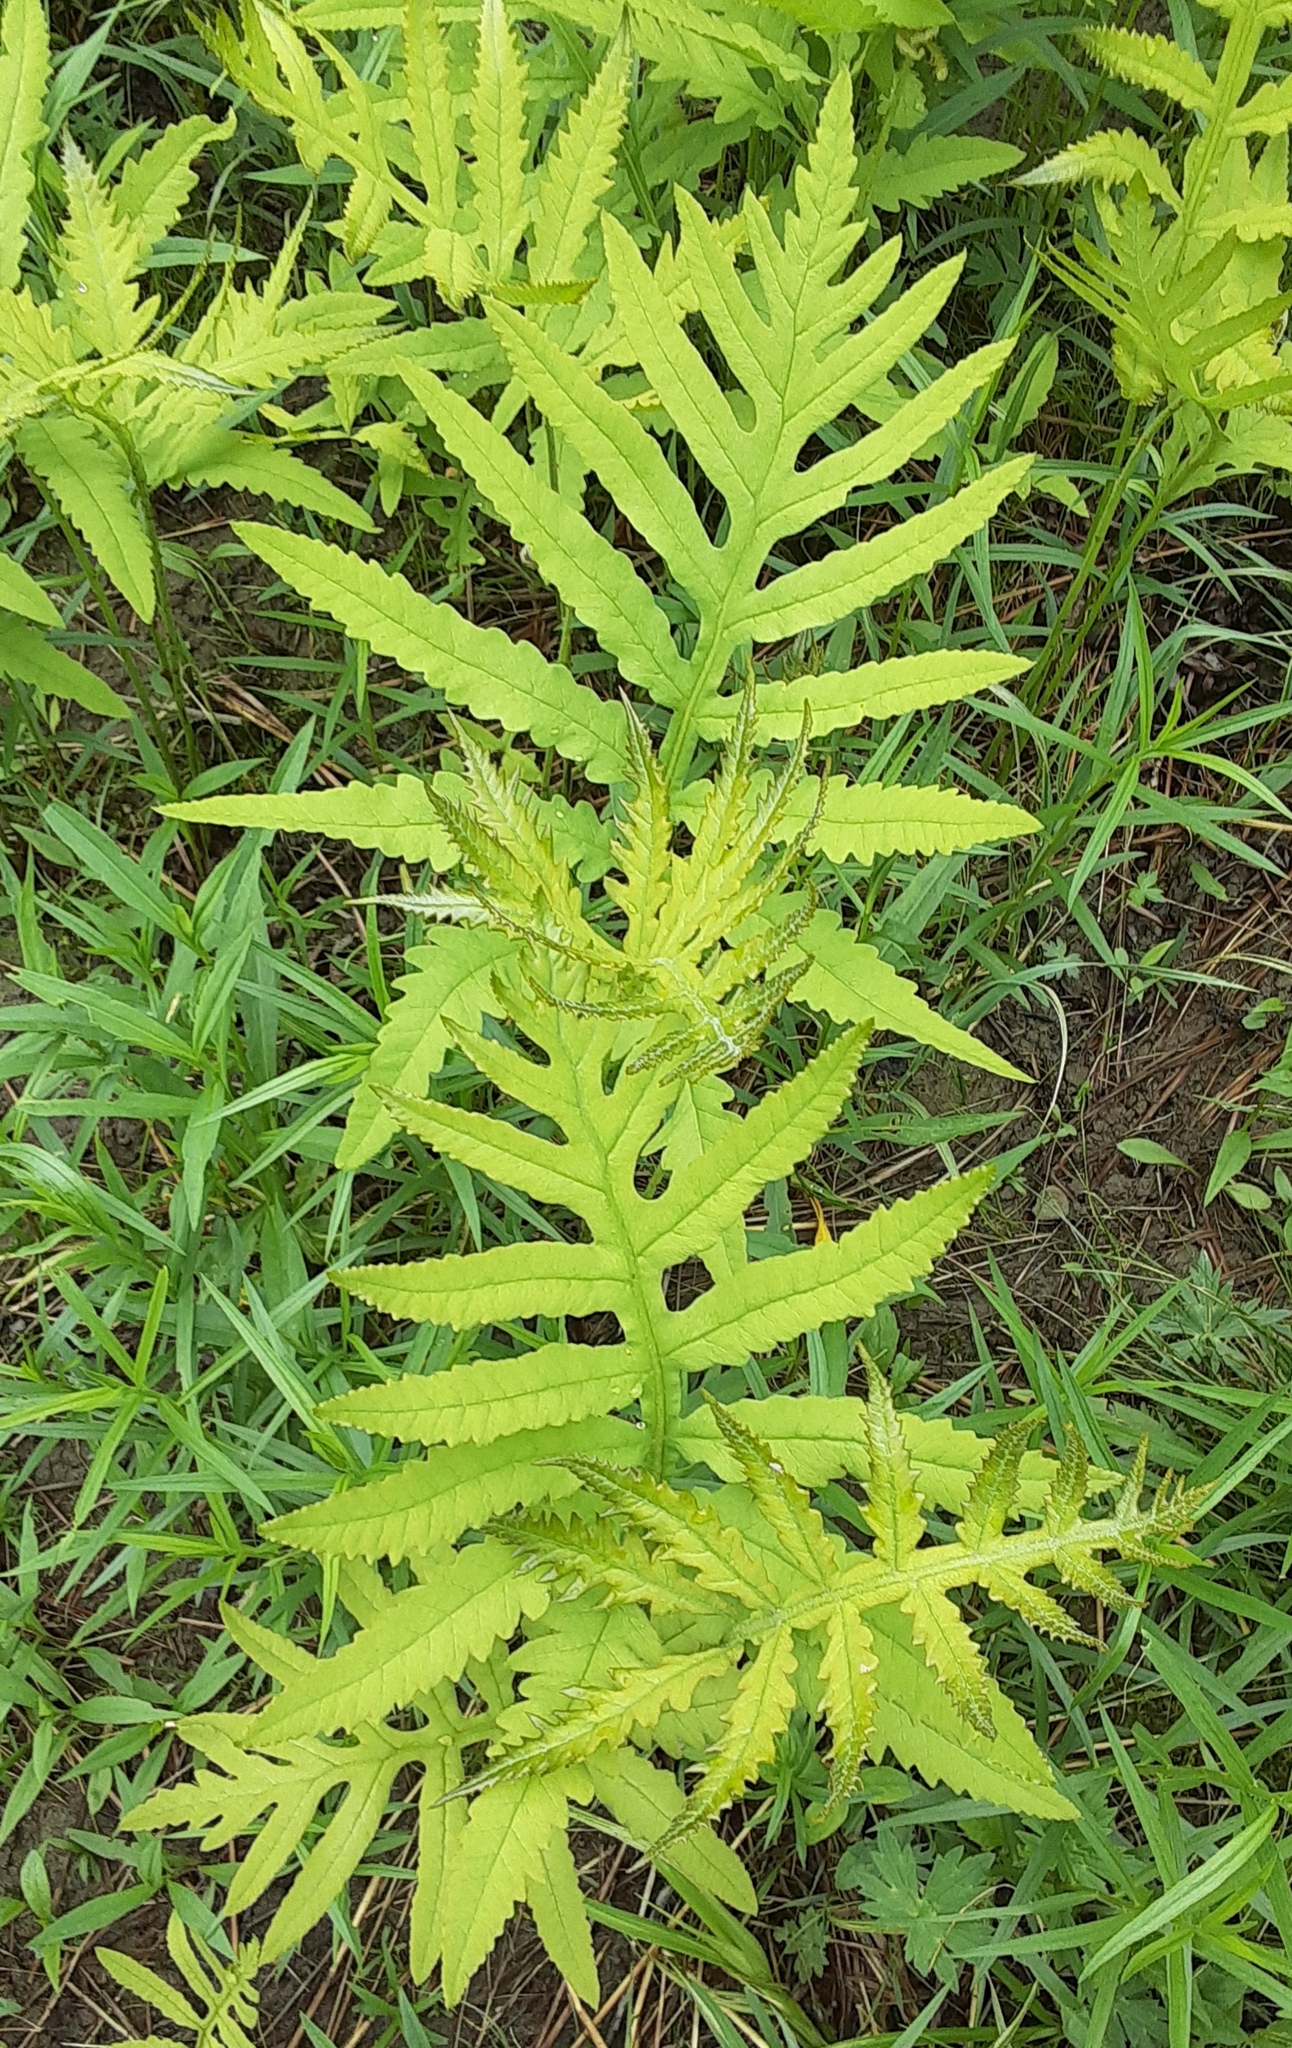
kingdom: Plantae
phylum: Tracheophyta
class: Polypodiopsida
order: Polypodiales
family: Onocleaceae
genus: Onoclea
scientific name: Onoclea sensibilis
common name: Sensitive fern
